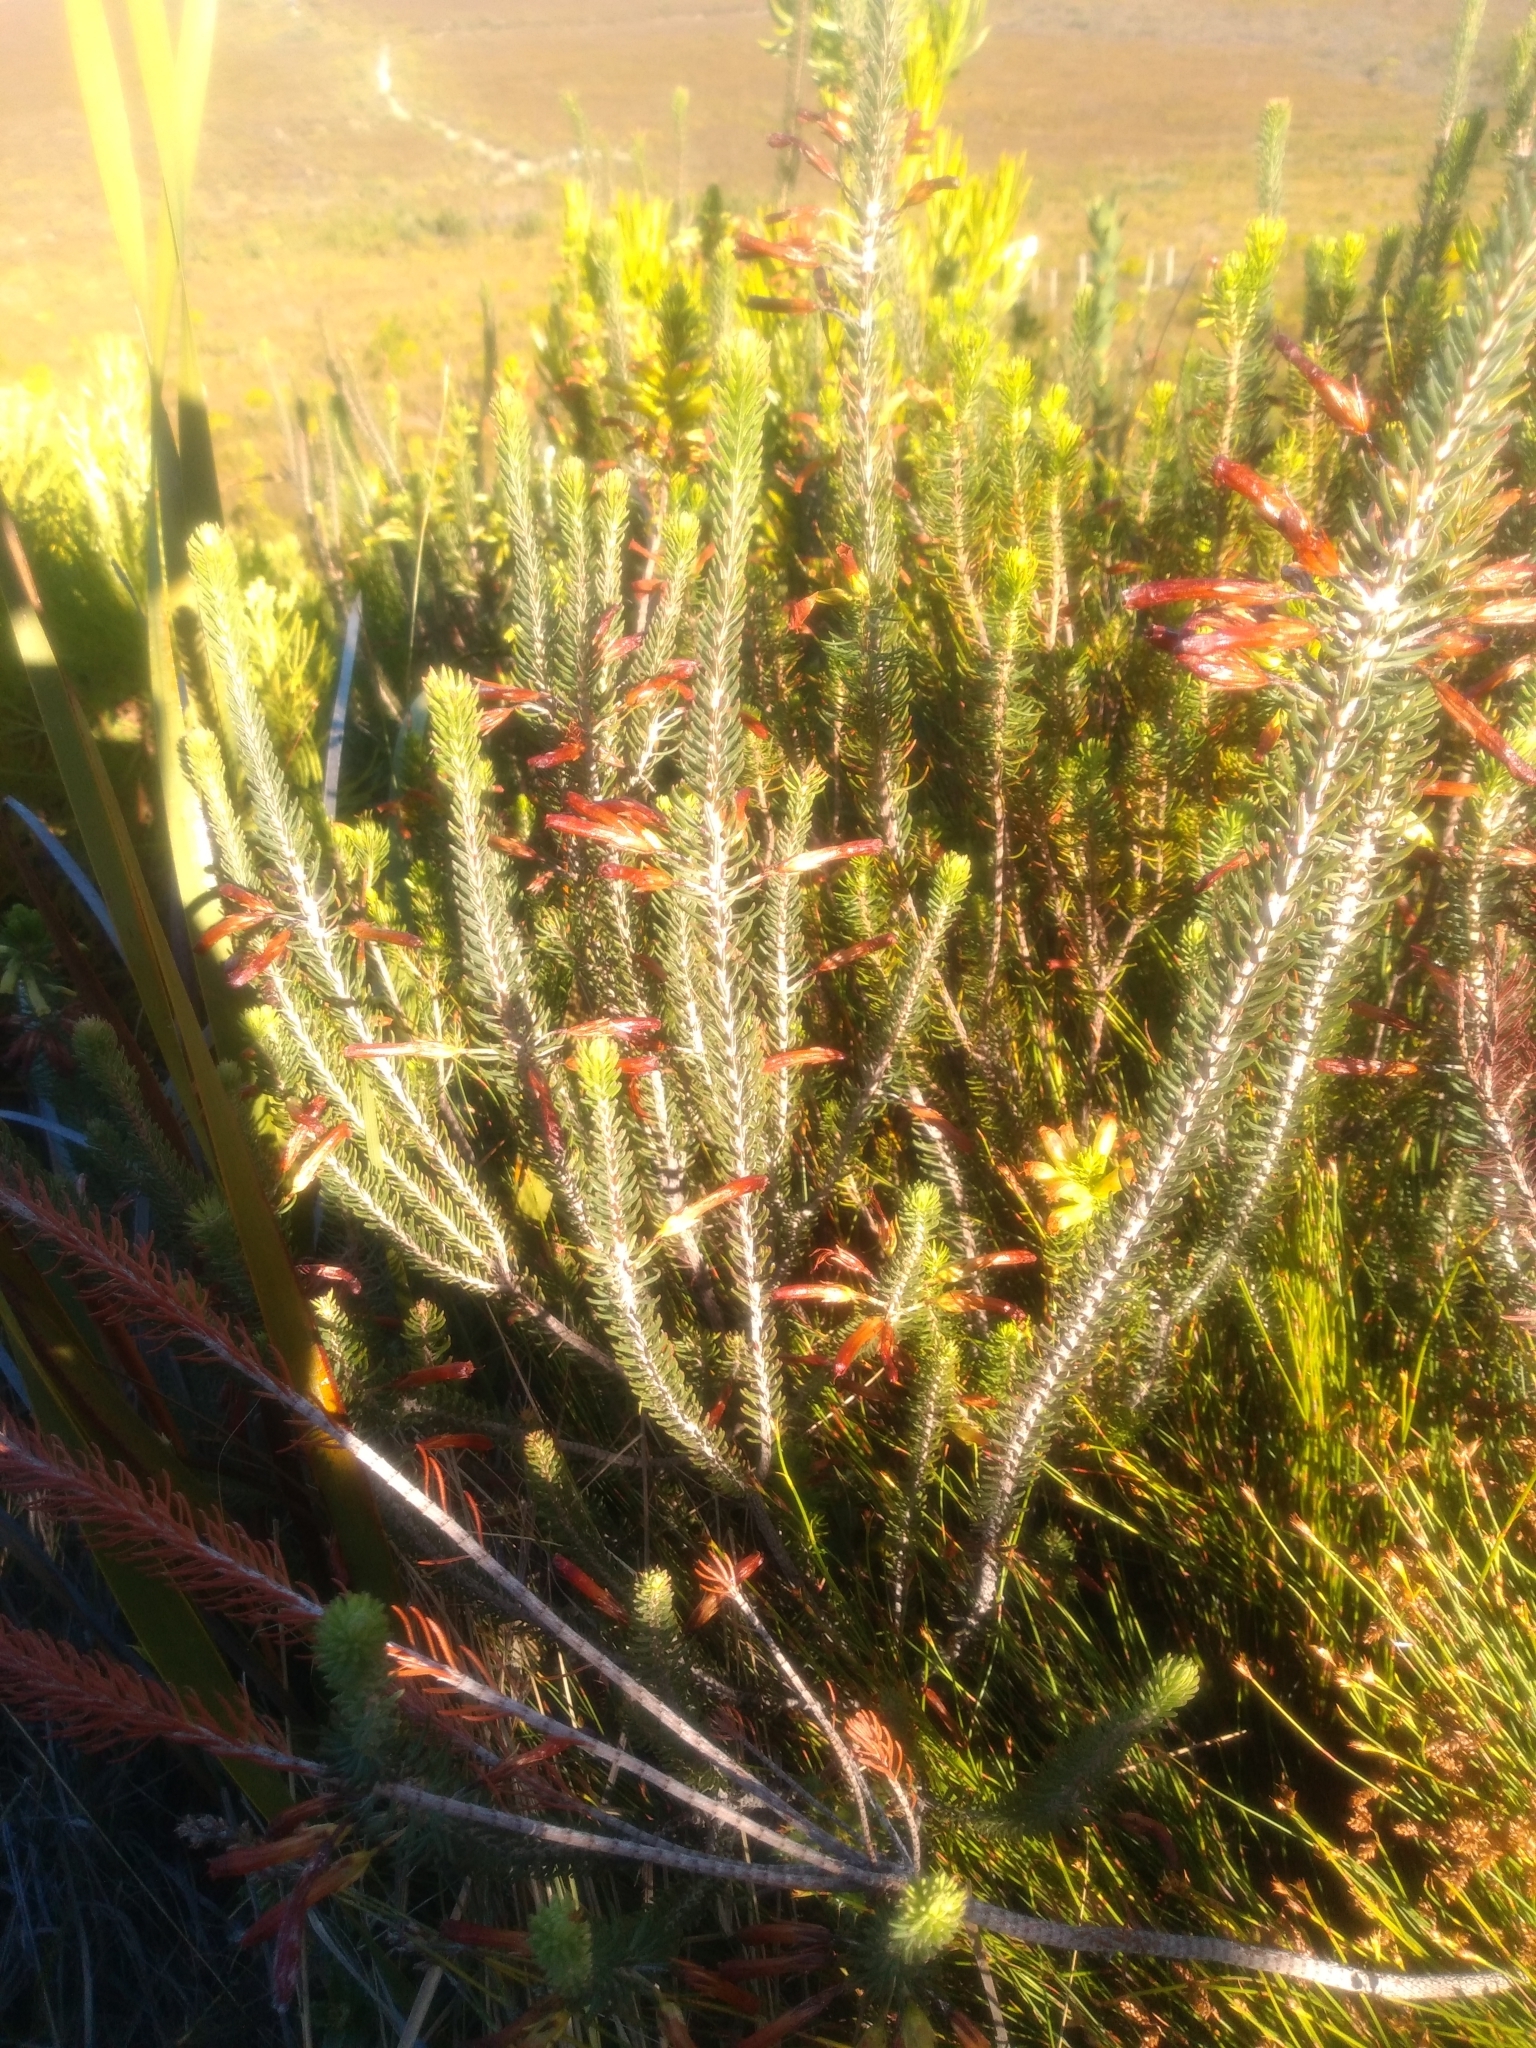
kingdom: Plantae
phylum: Tracheophyta
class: Magnoliopsida
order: Ericales
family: Ericaceae
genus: Erica
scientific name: Erica thomae
